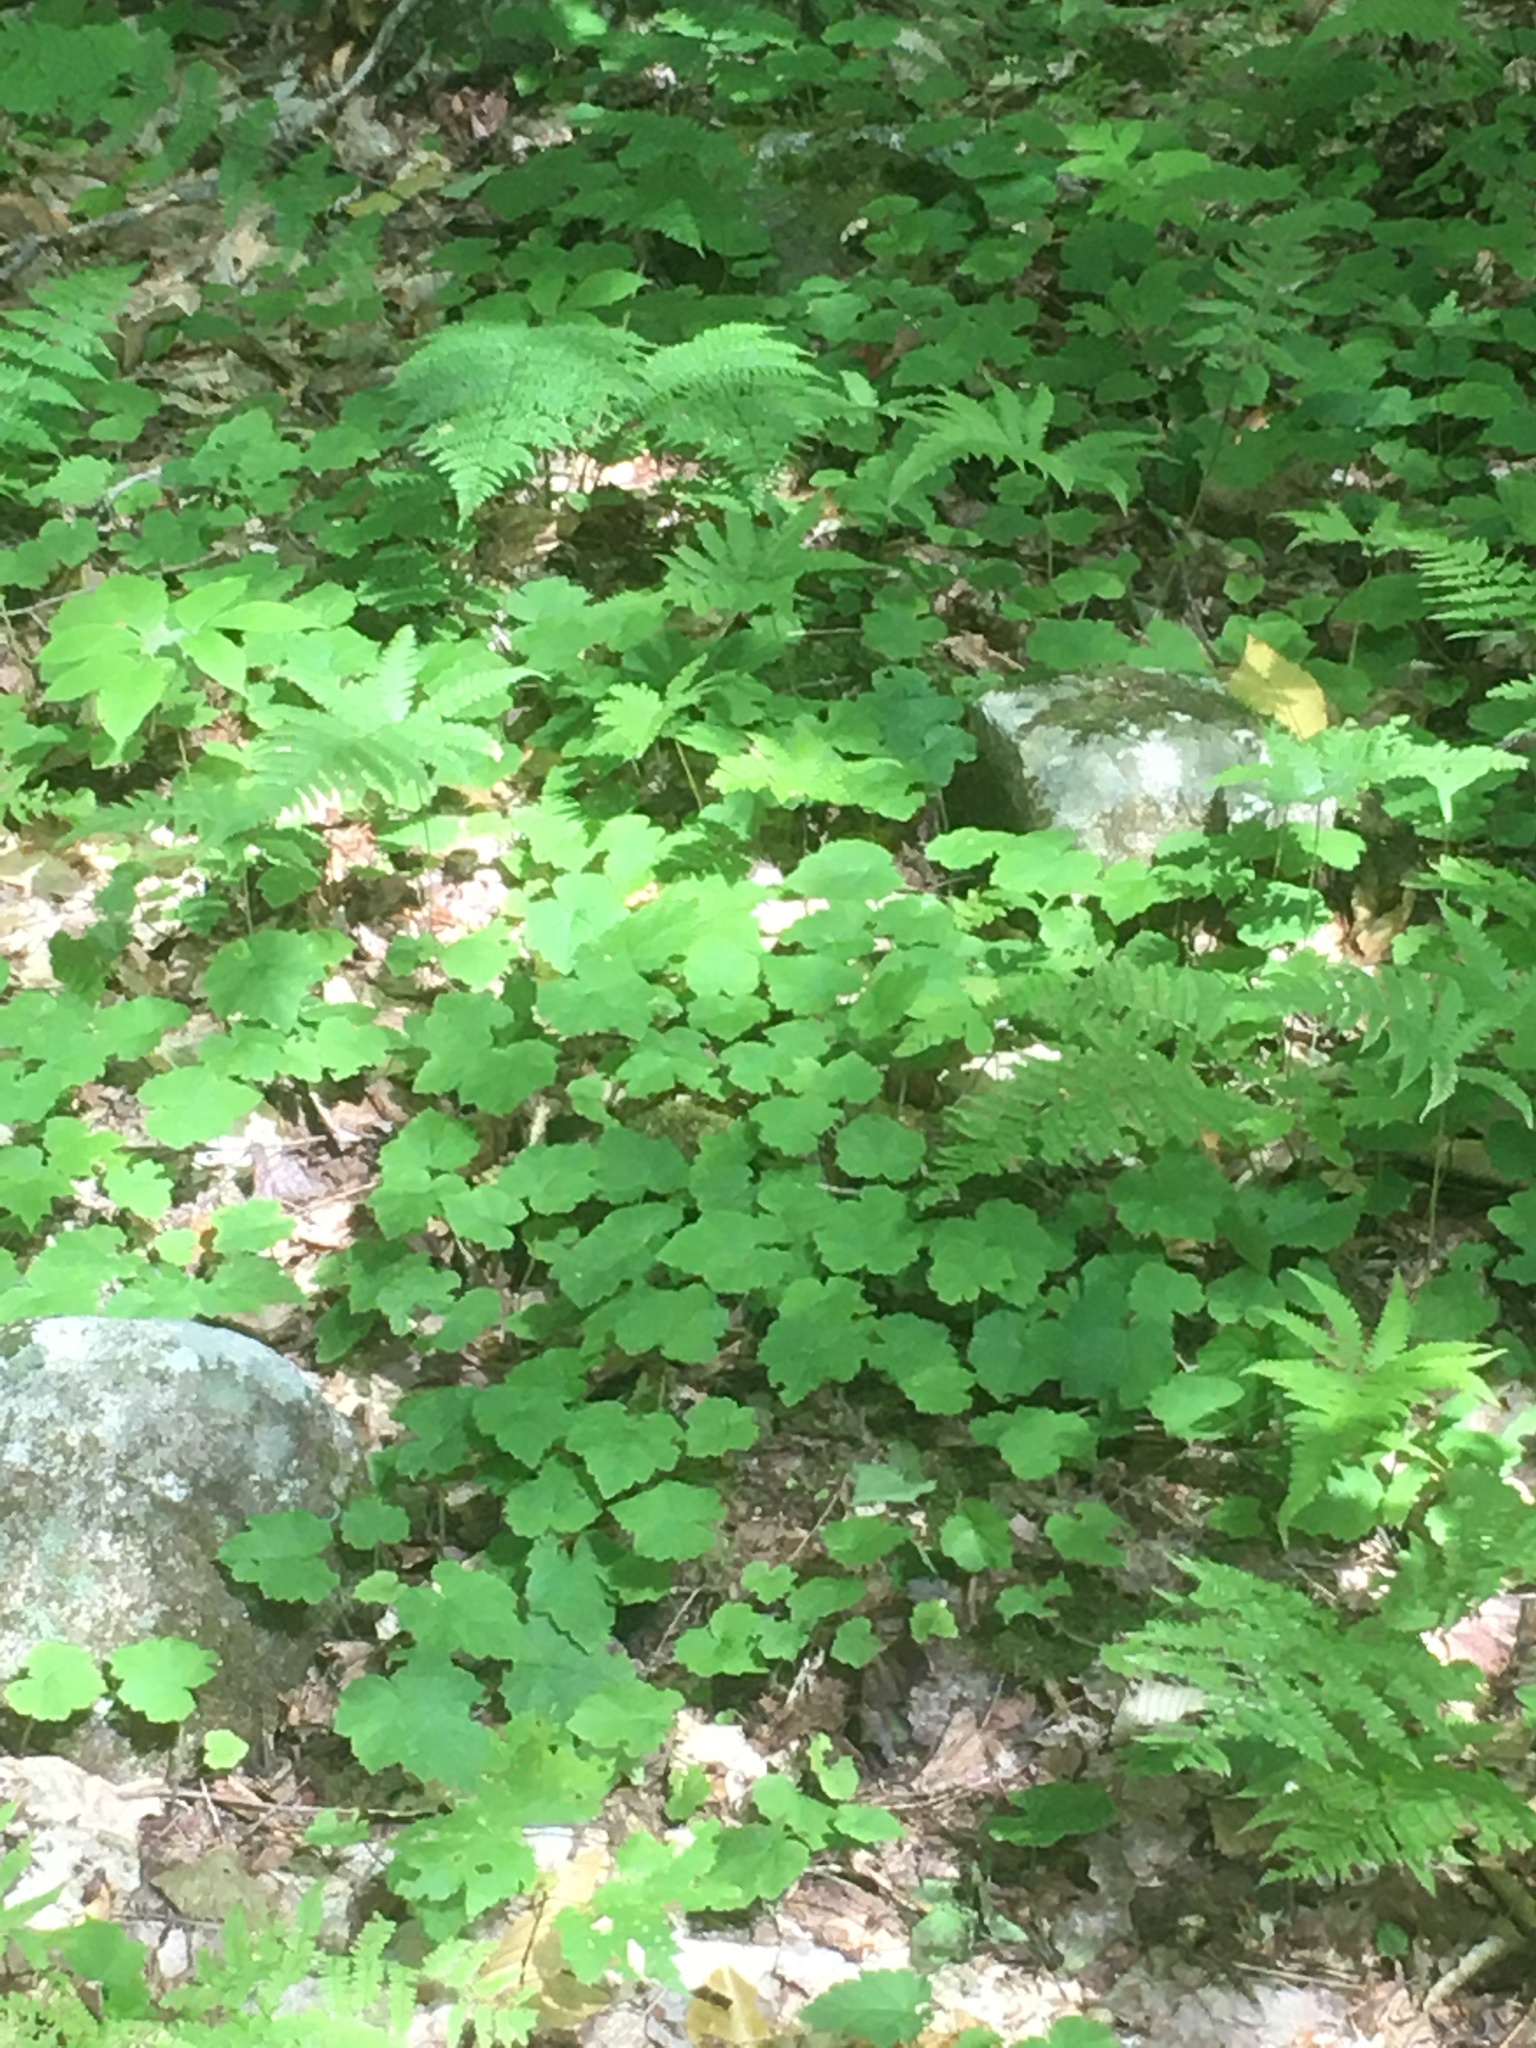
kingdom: Plantae
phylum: Tracheophyta
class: Magnoliopsida
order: Saxifragales
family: Saxifragaceae
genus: Tiarella
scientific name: Tiarella stolonifera
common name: Stoloniferous foamflower
